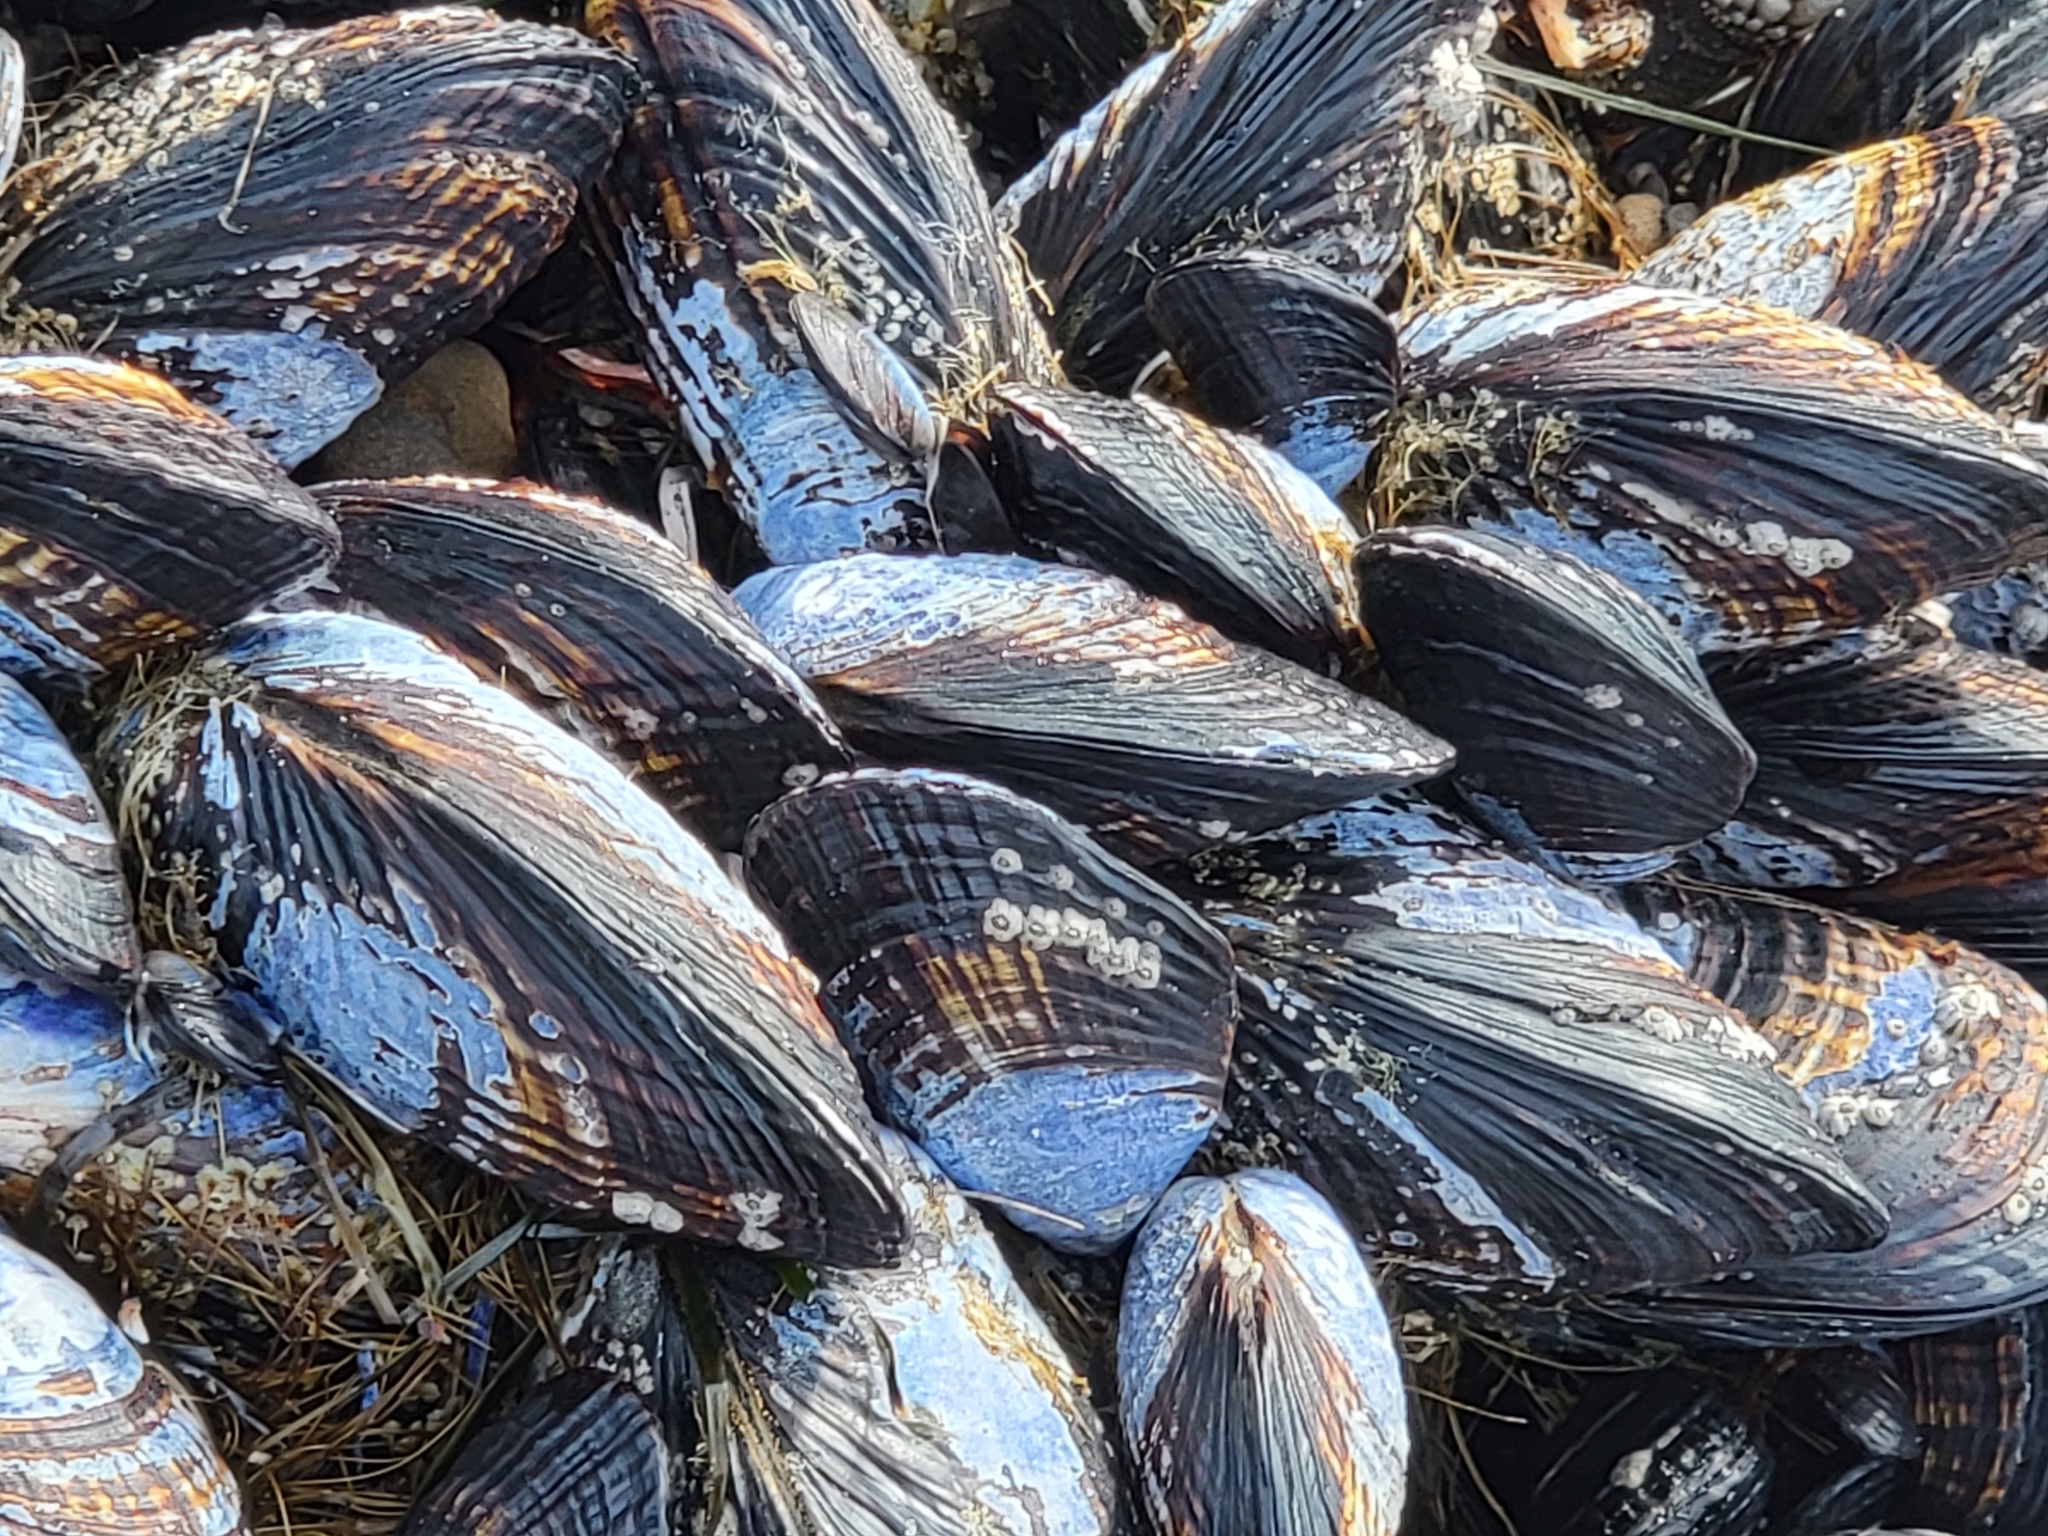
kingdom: Animalia
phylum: Mollusca
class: Bivalvia
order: Mytilida
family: Mytilidae
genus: Mytilus
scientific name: Mytilus californianus
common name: California mussel
